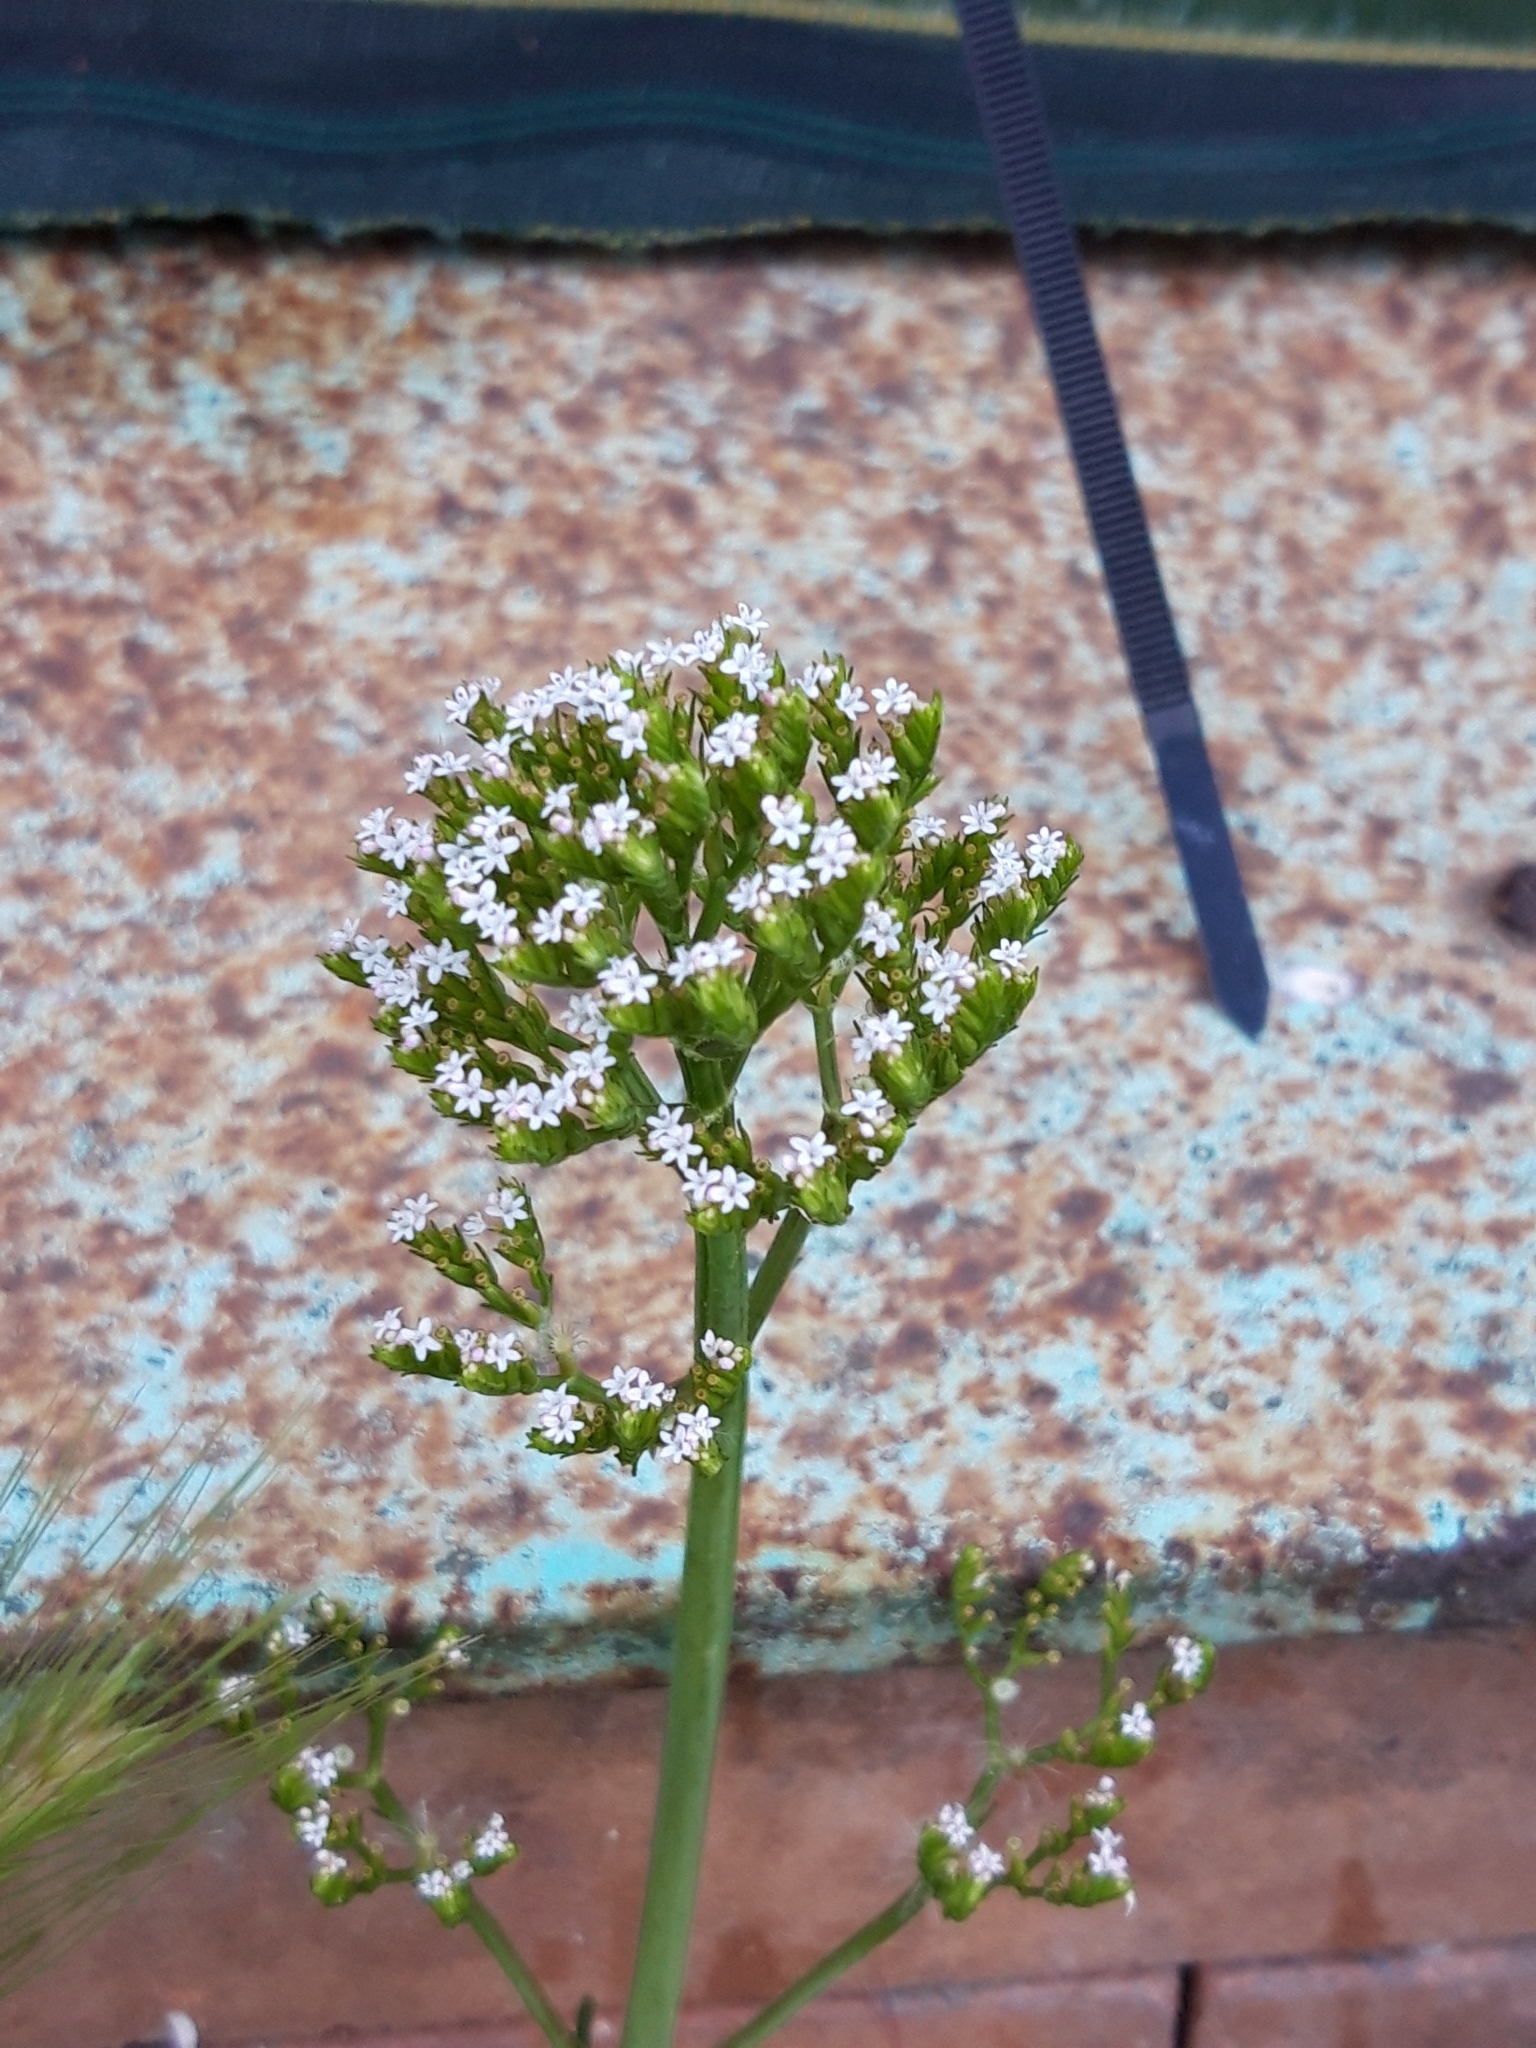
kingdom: Plantae
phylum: Tracheophyta
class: Magnoliopsida
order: Dipsacales
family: Caprifoliaceae
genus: Centranthus
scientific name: Centranthus calcitrapae
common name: Annual valerian
